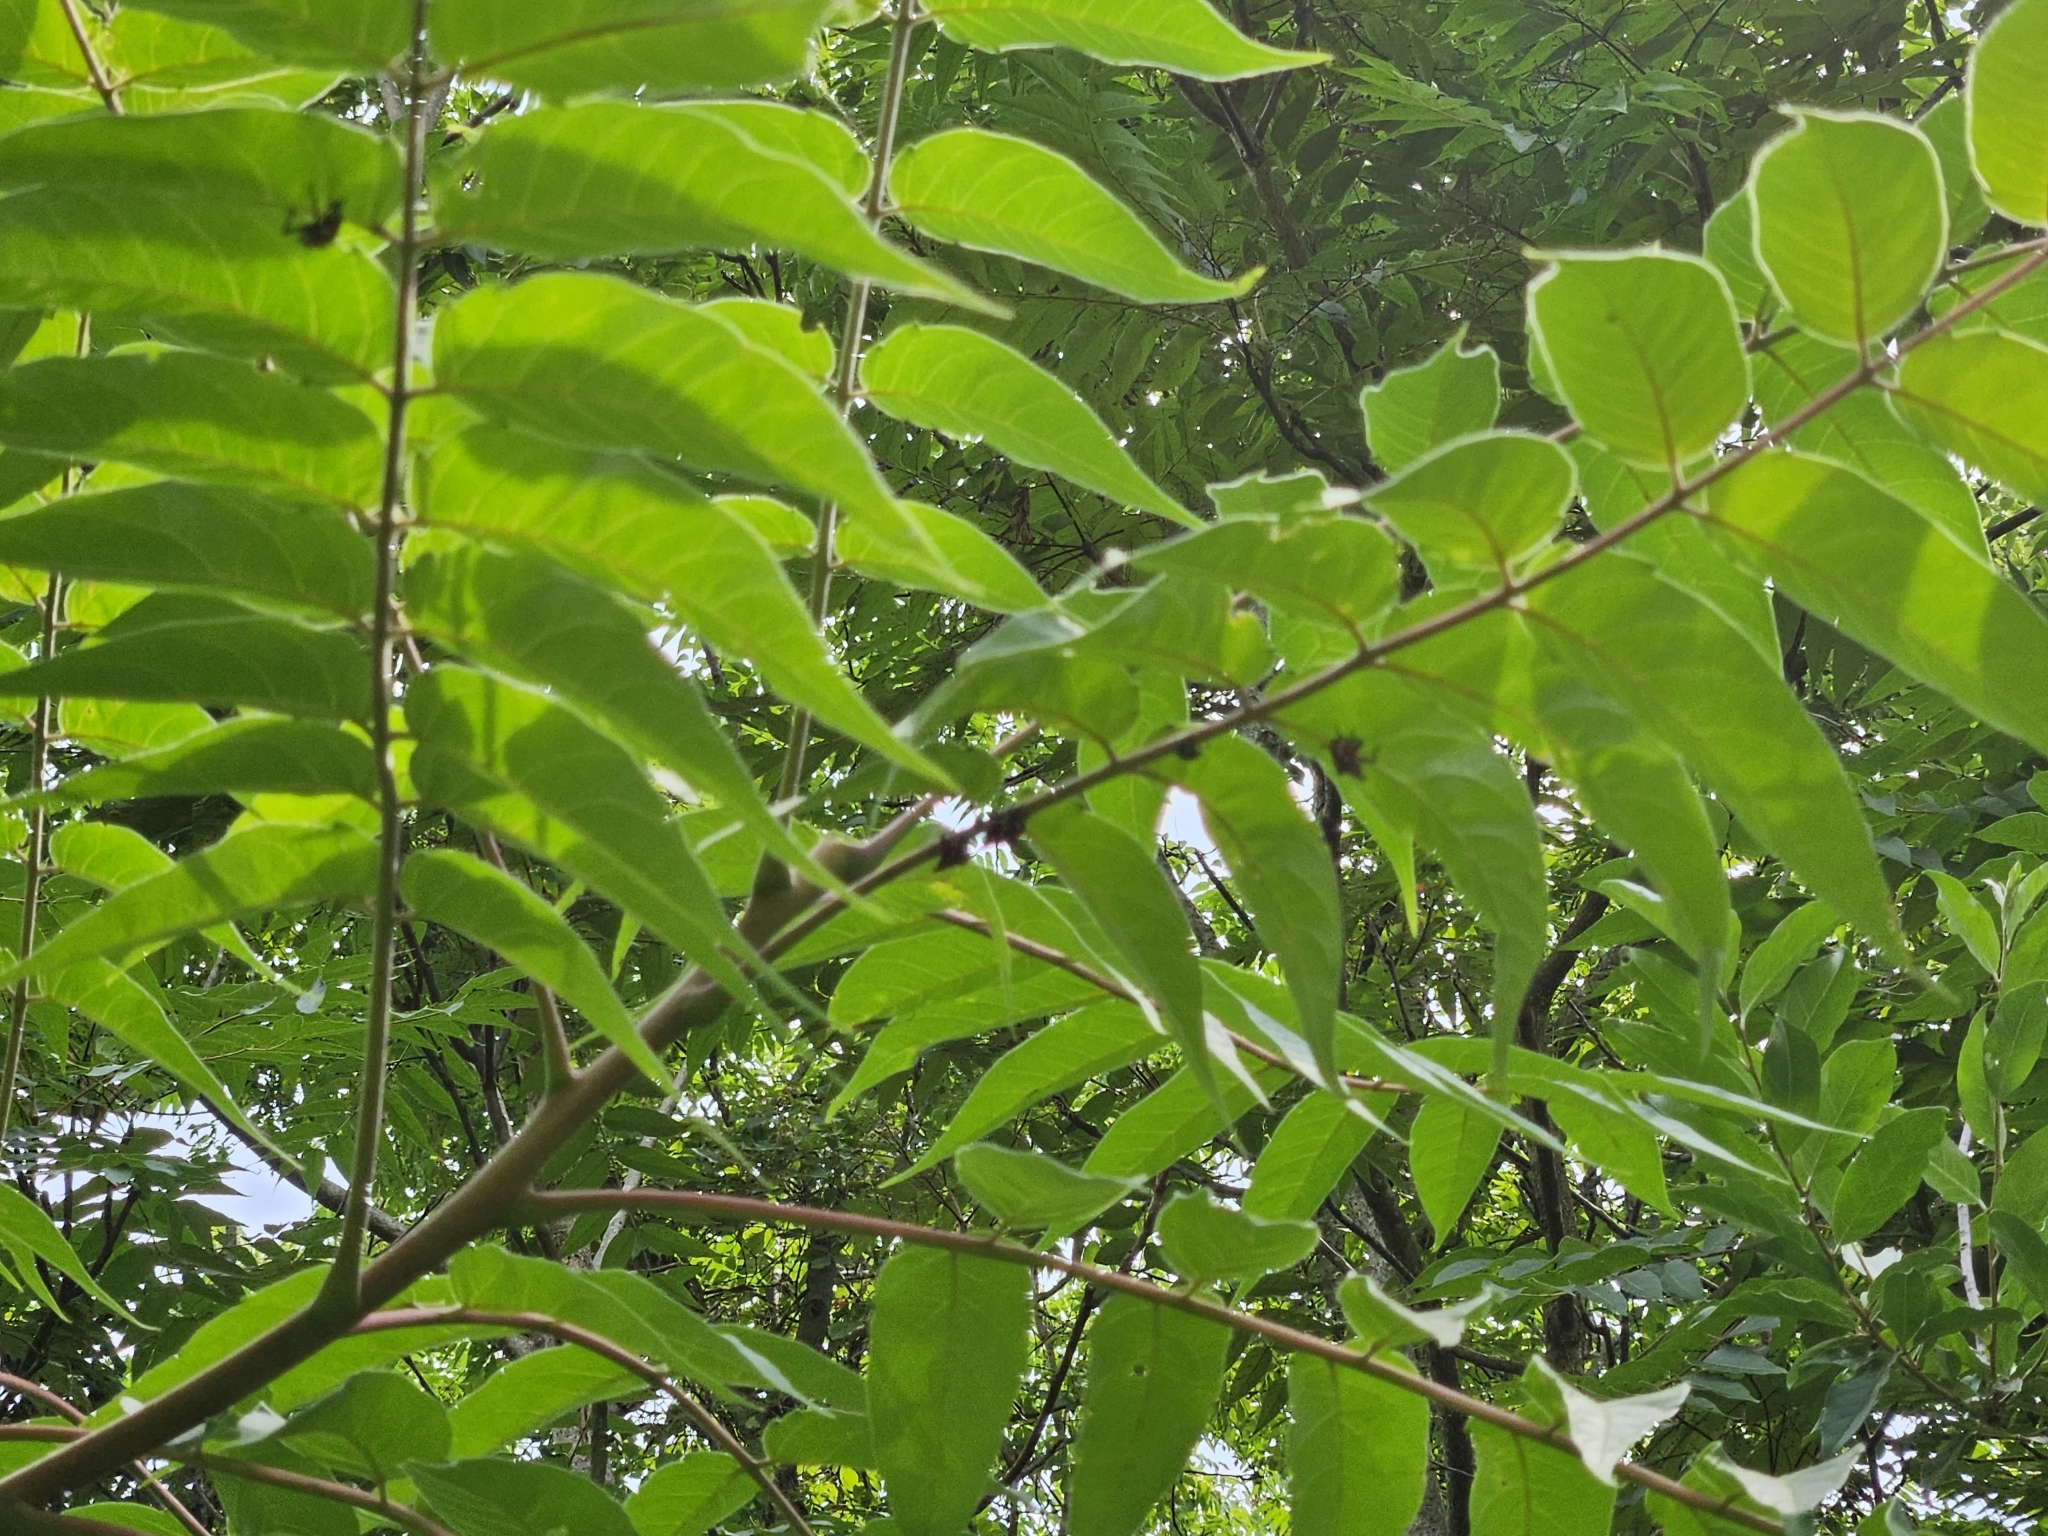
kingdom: Animalia
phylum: Arthropoda
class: Insecta
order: Hemiptera
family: Fulgoridae
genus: Lycorma
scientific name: Lycorma delicatula
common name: Spotted lanternfly
